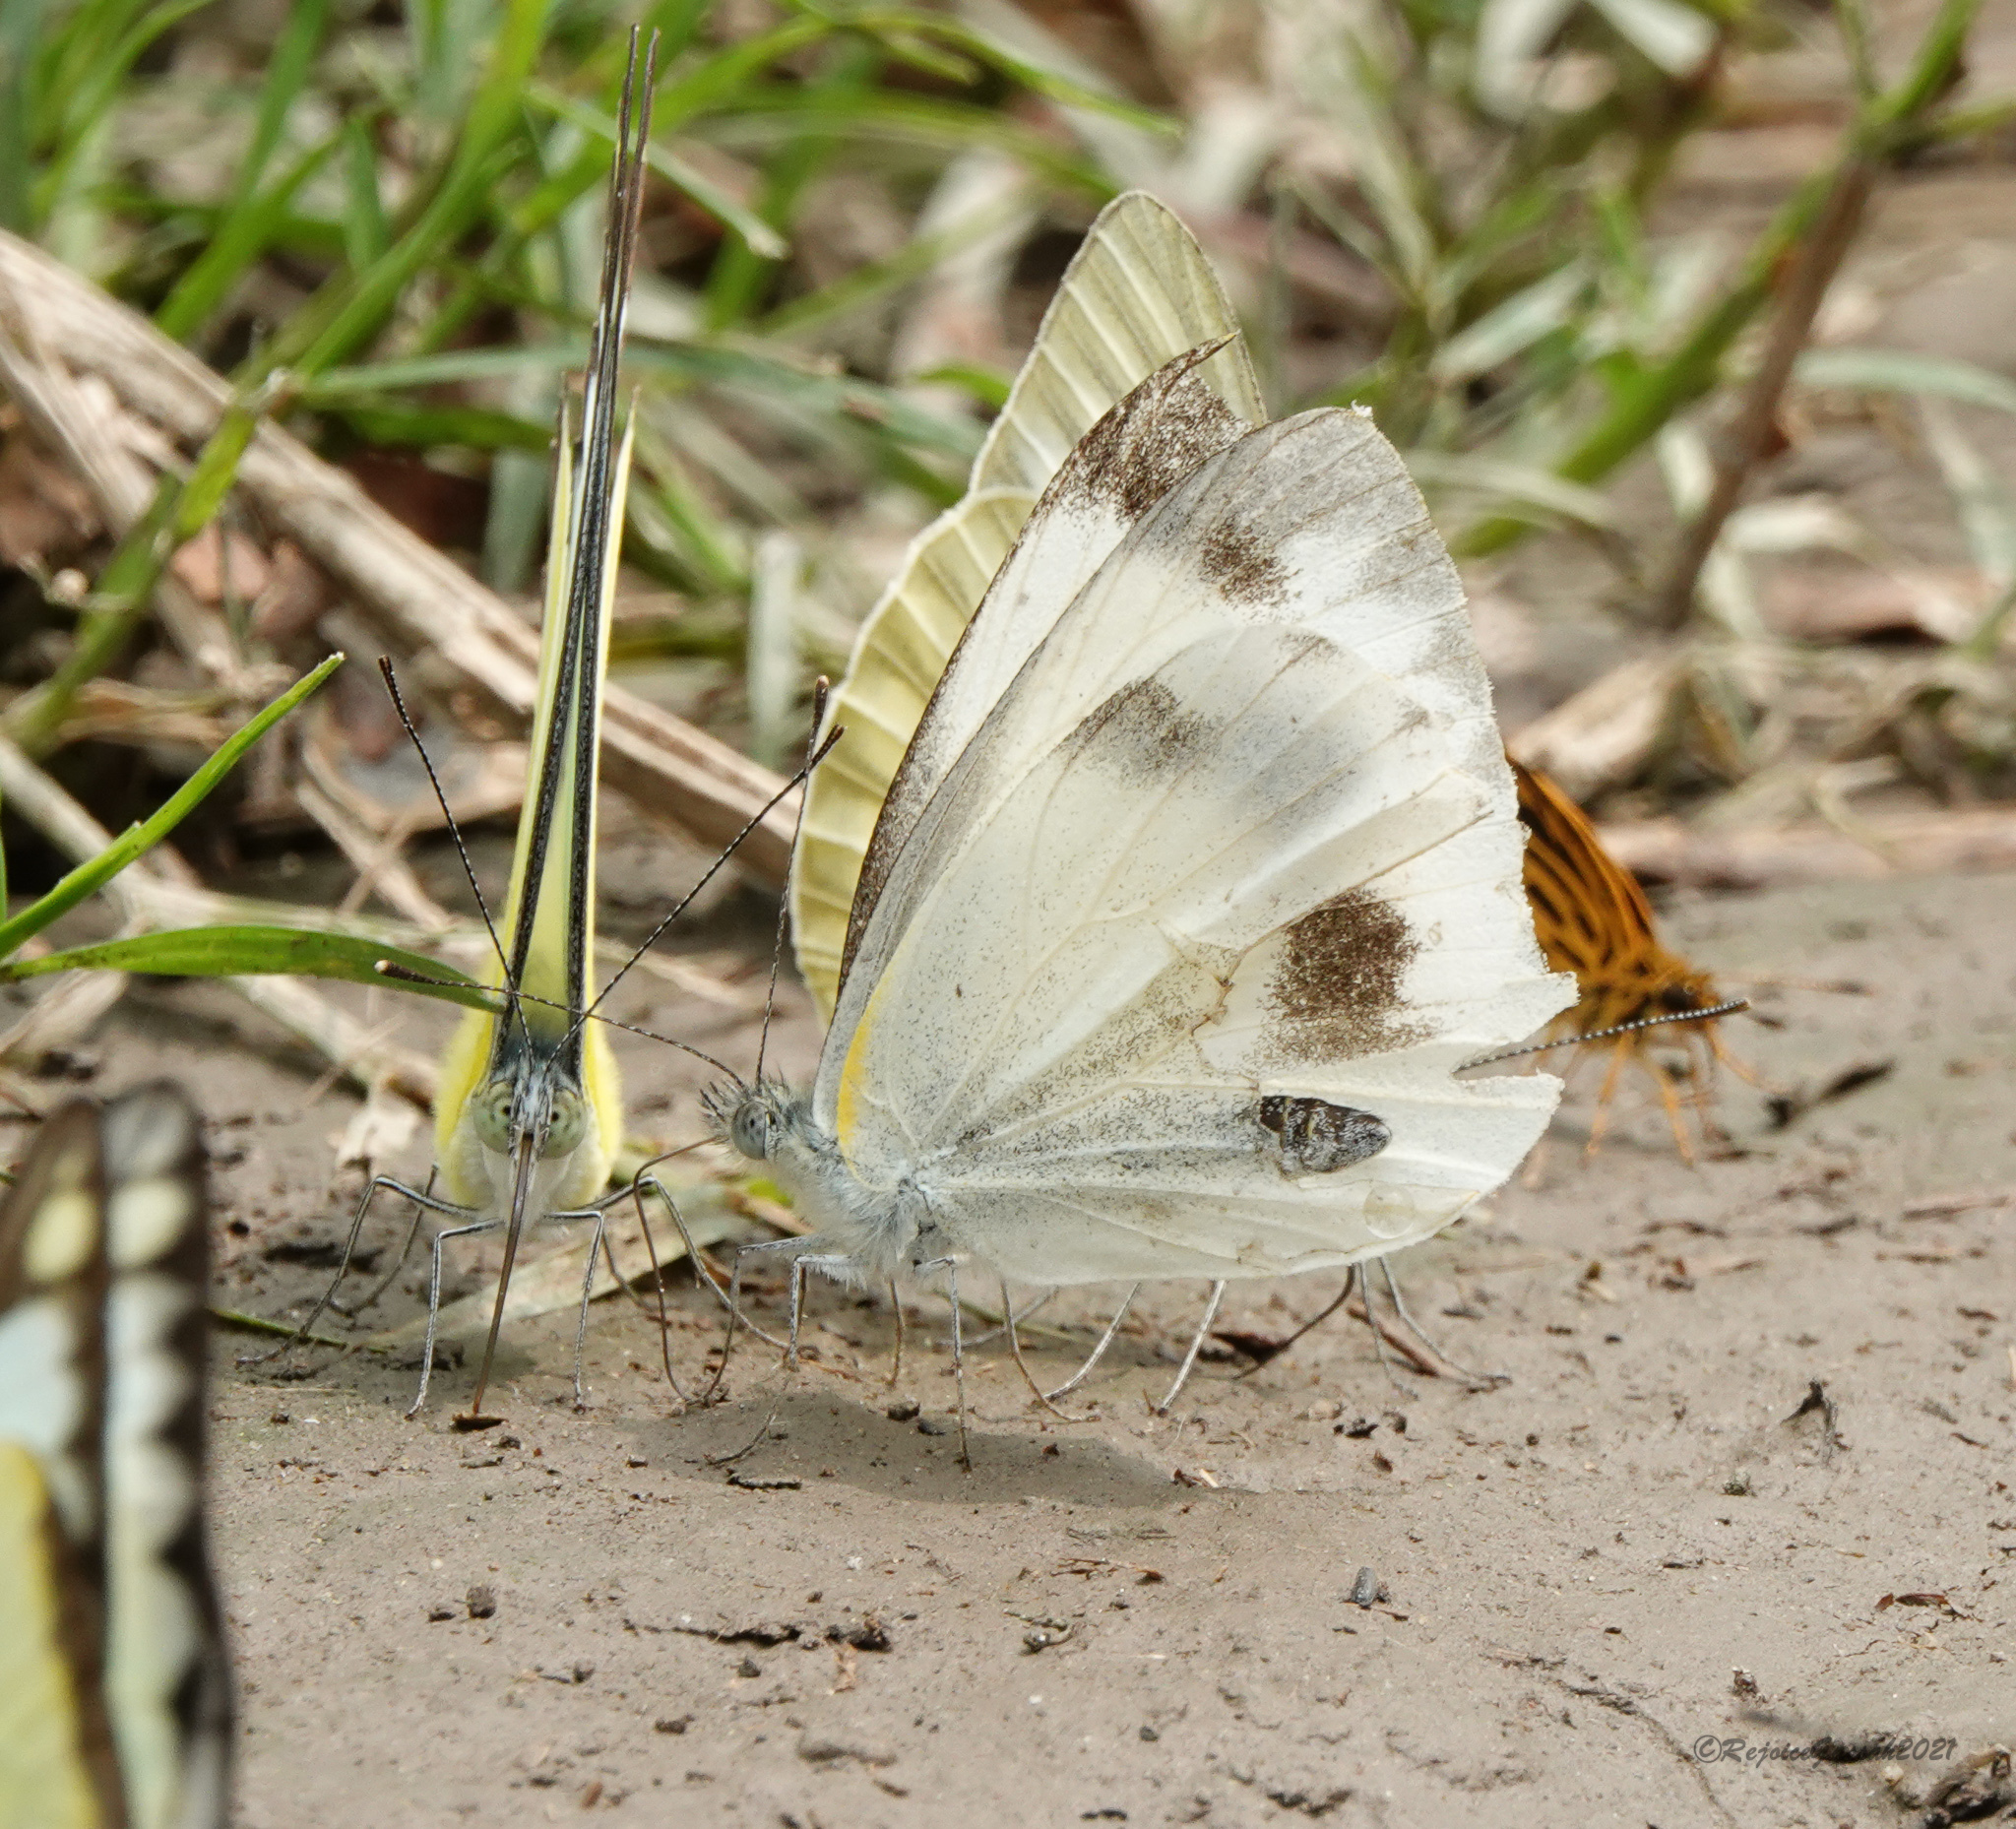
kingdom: Animalia
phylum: Arthropoda
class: Insecta
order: Lepidoptera
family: Pieridae
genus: Pieris
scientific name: Pieris canidia
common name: Indian cabbage white
